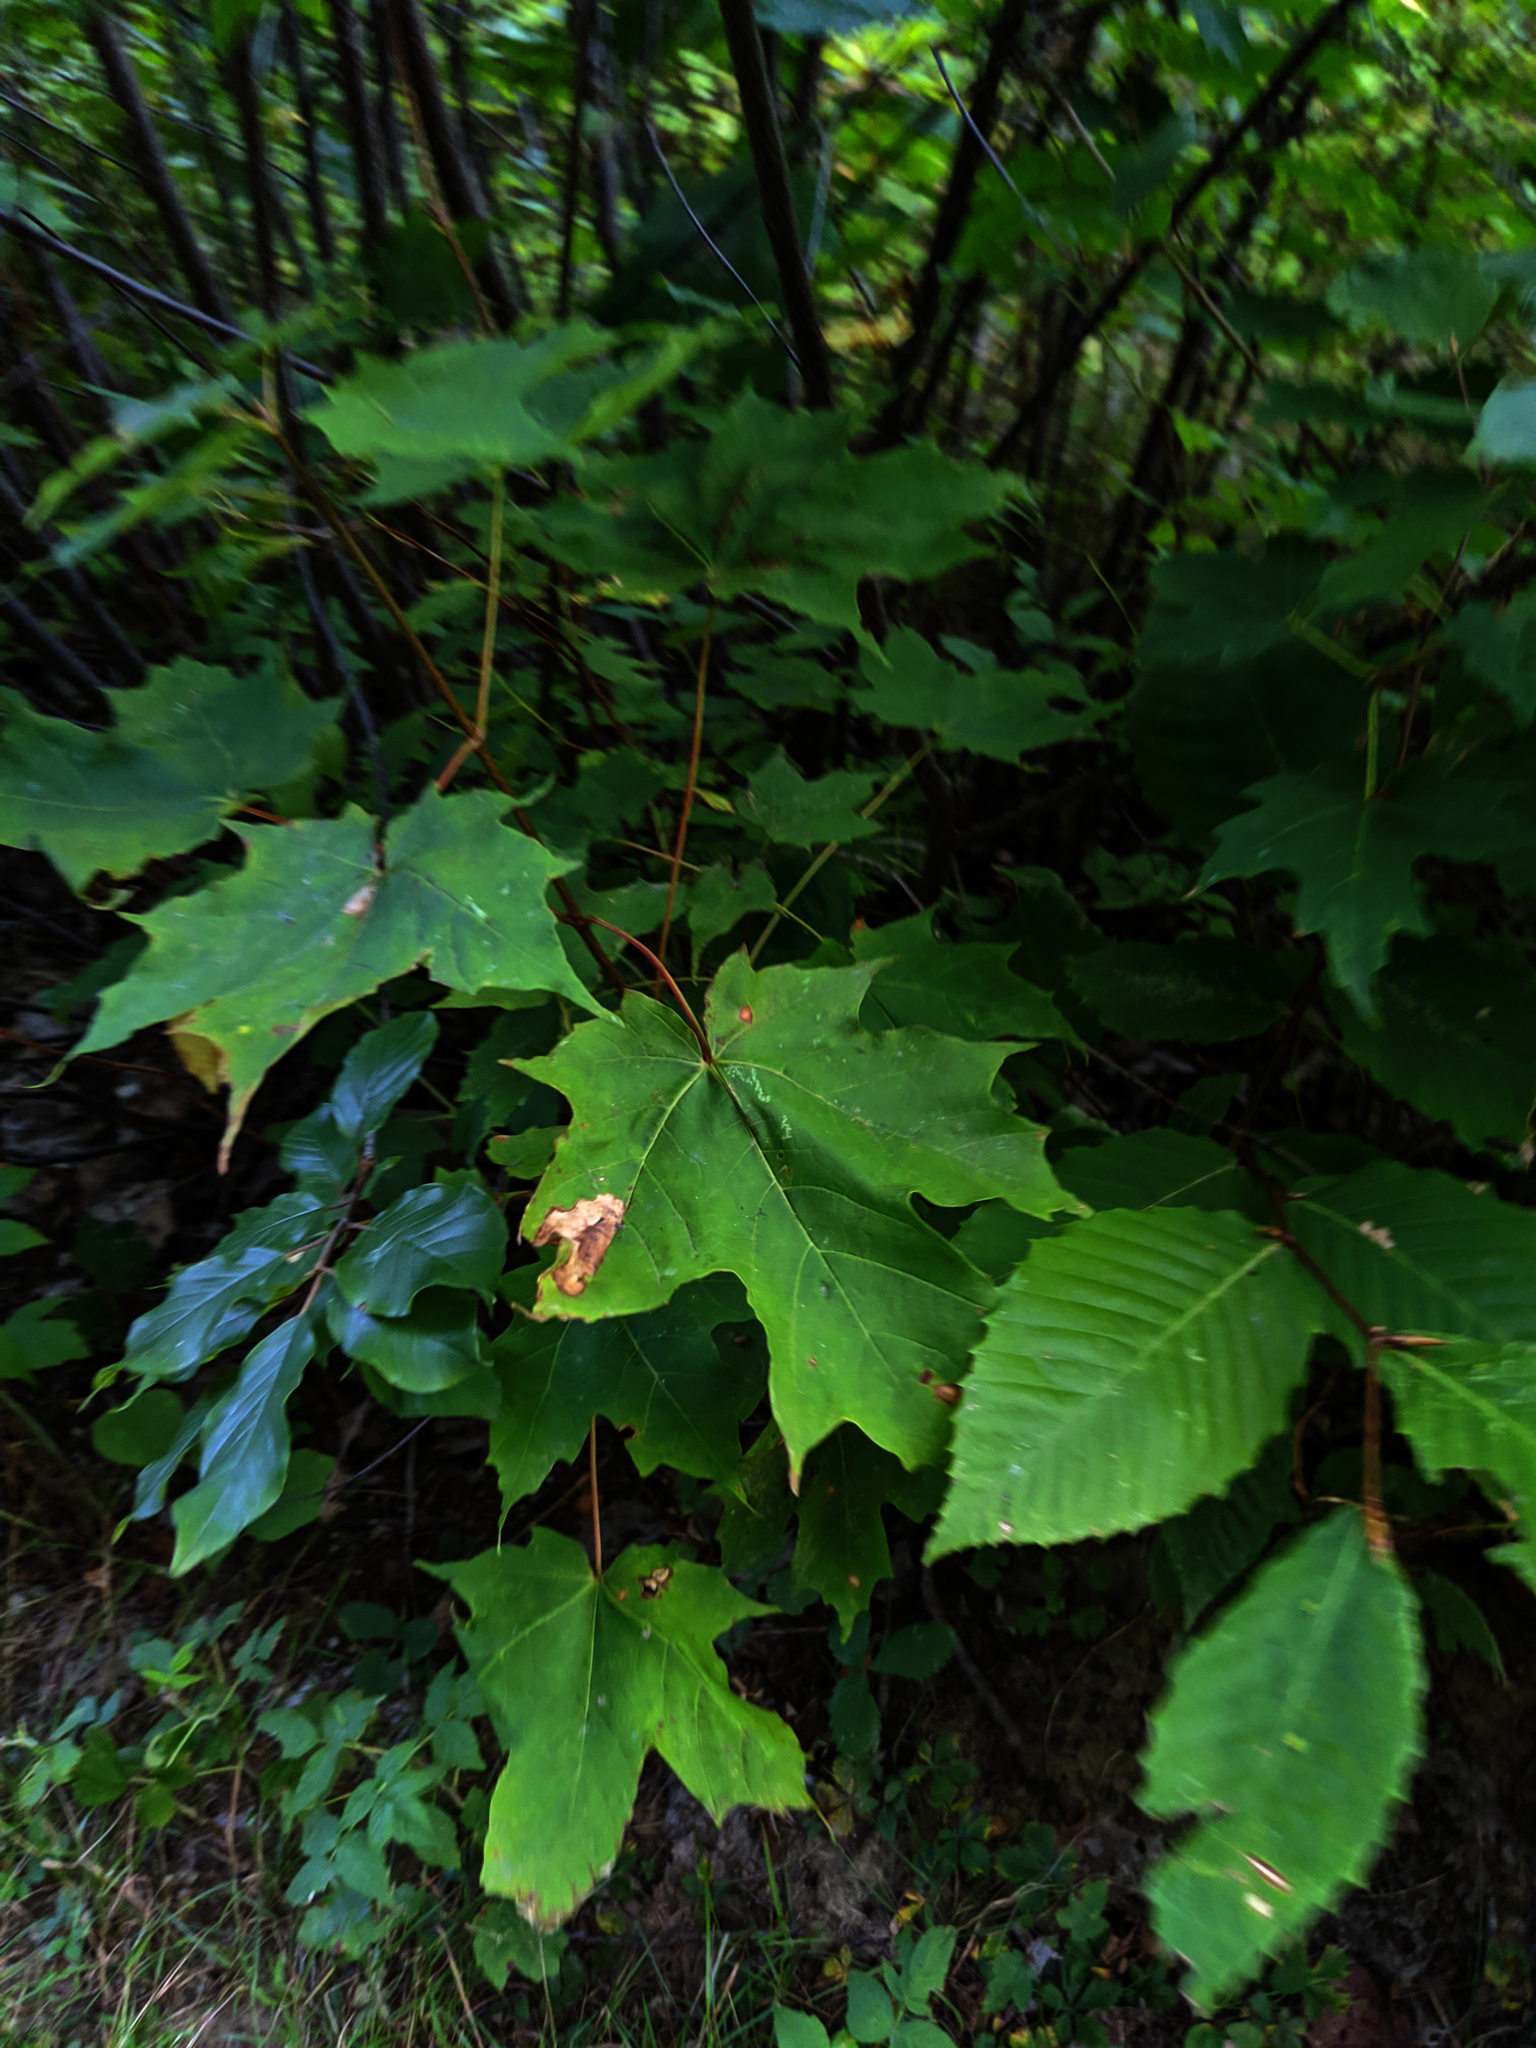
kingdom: Plantae
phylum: Tracheophyta
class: Magnoliopsida
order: Fagales
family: Fagaceae
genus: Fagus
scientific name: Fagus grandifolia
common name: American beech
